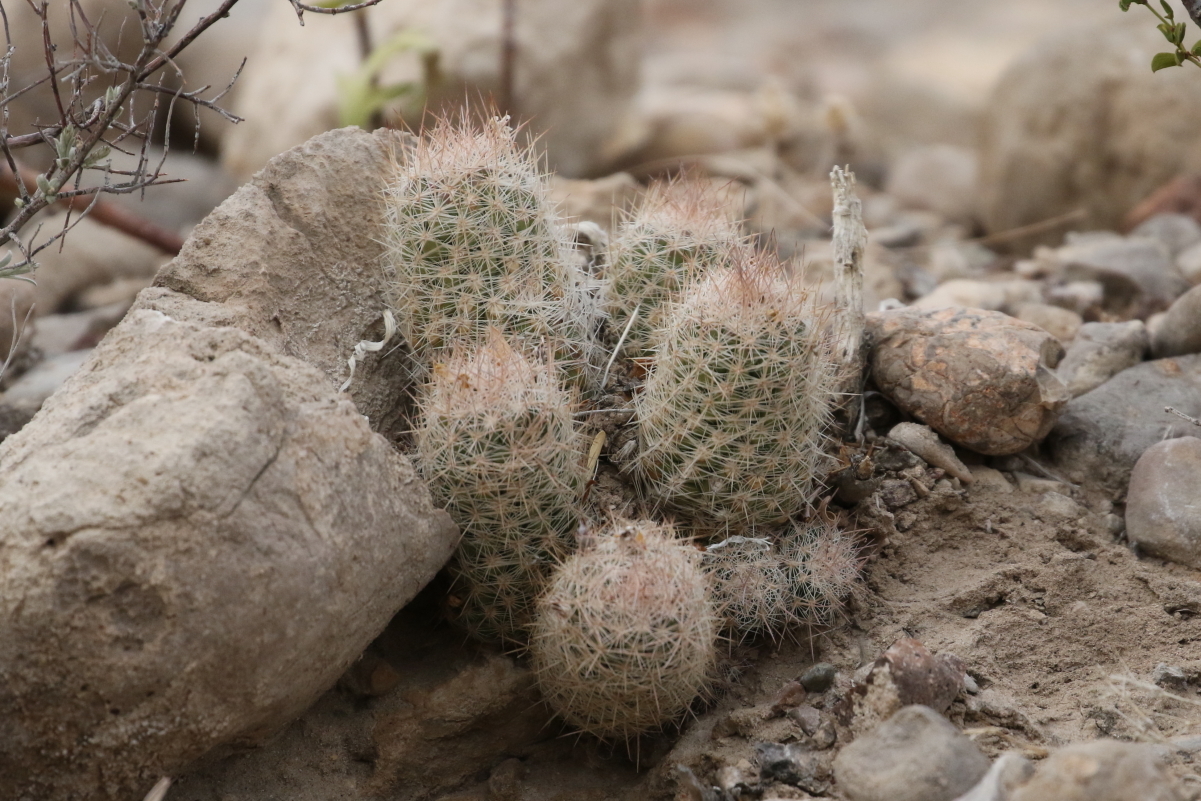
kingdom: Plantae
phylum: Tracheophyta
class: Magnoliopsida
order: Caryophyllales
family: Cactaceae
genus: Pelecyphora
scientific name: Pelecyphora tuberculosa
